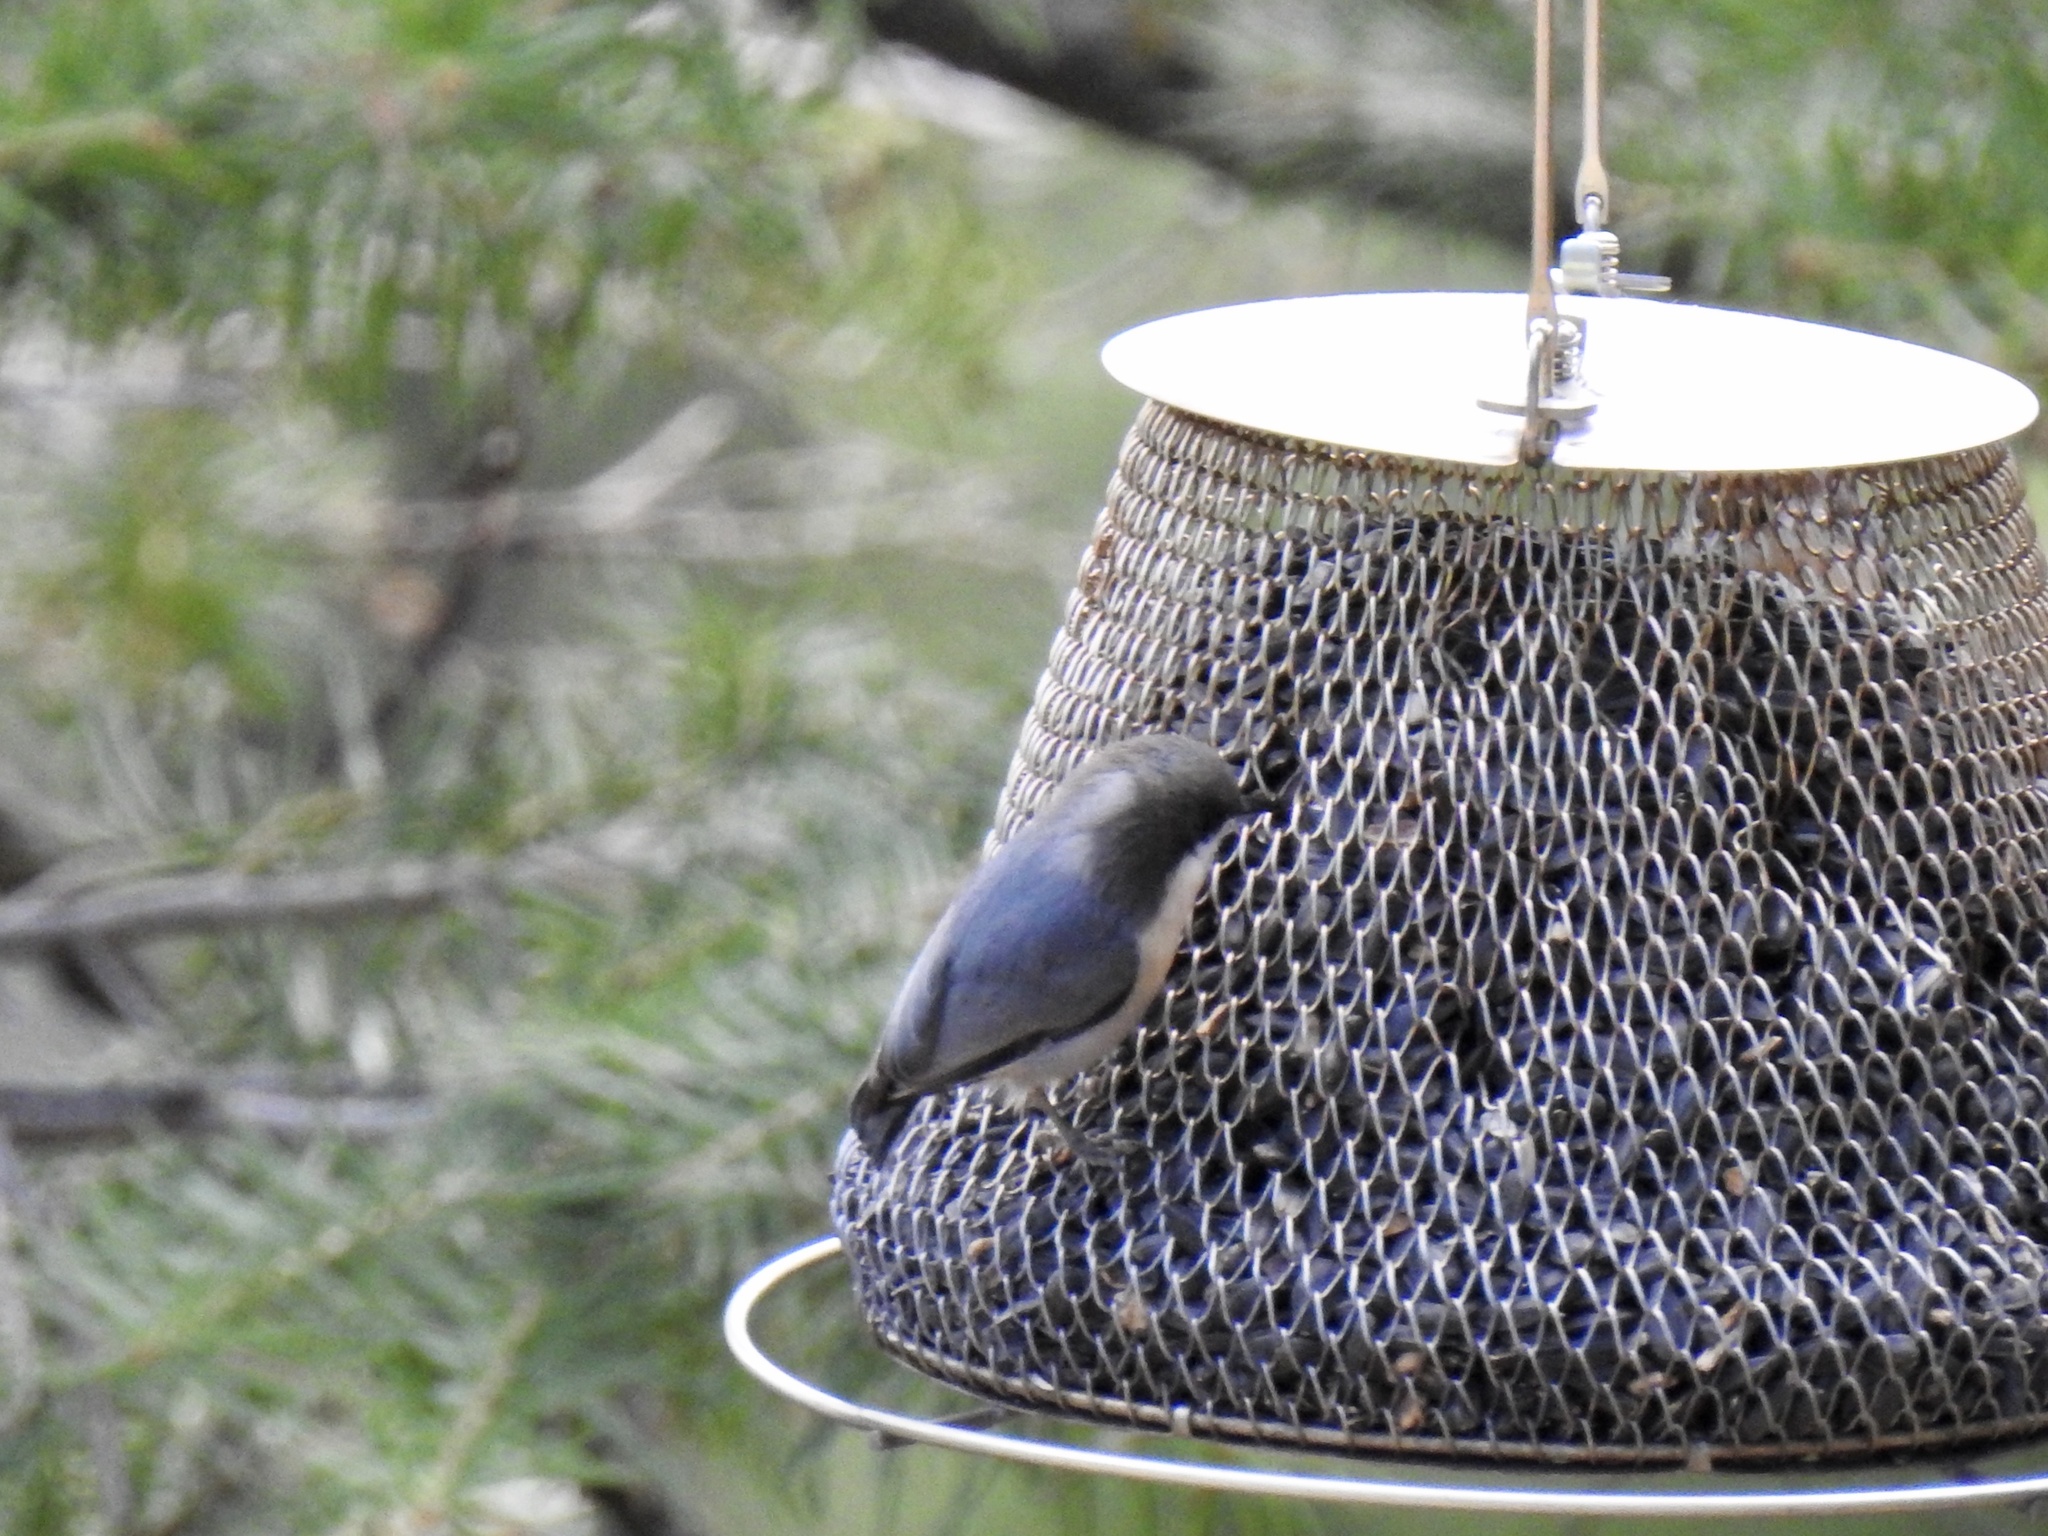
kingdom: Animalia
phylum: Chordata
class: Aves
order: Passeriformes
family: Sittidae
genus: Sitta
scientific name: Sitta pygmaea
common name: Pygmy nuthatch
